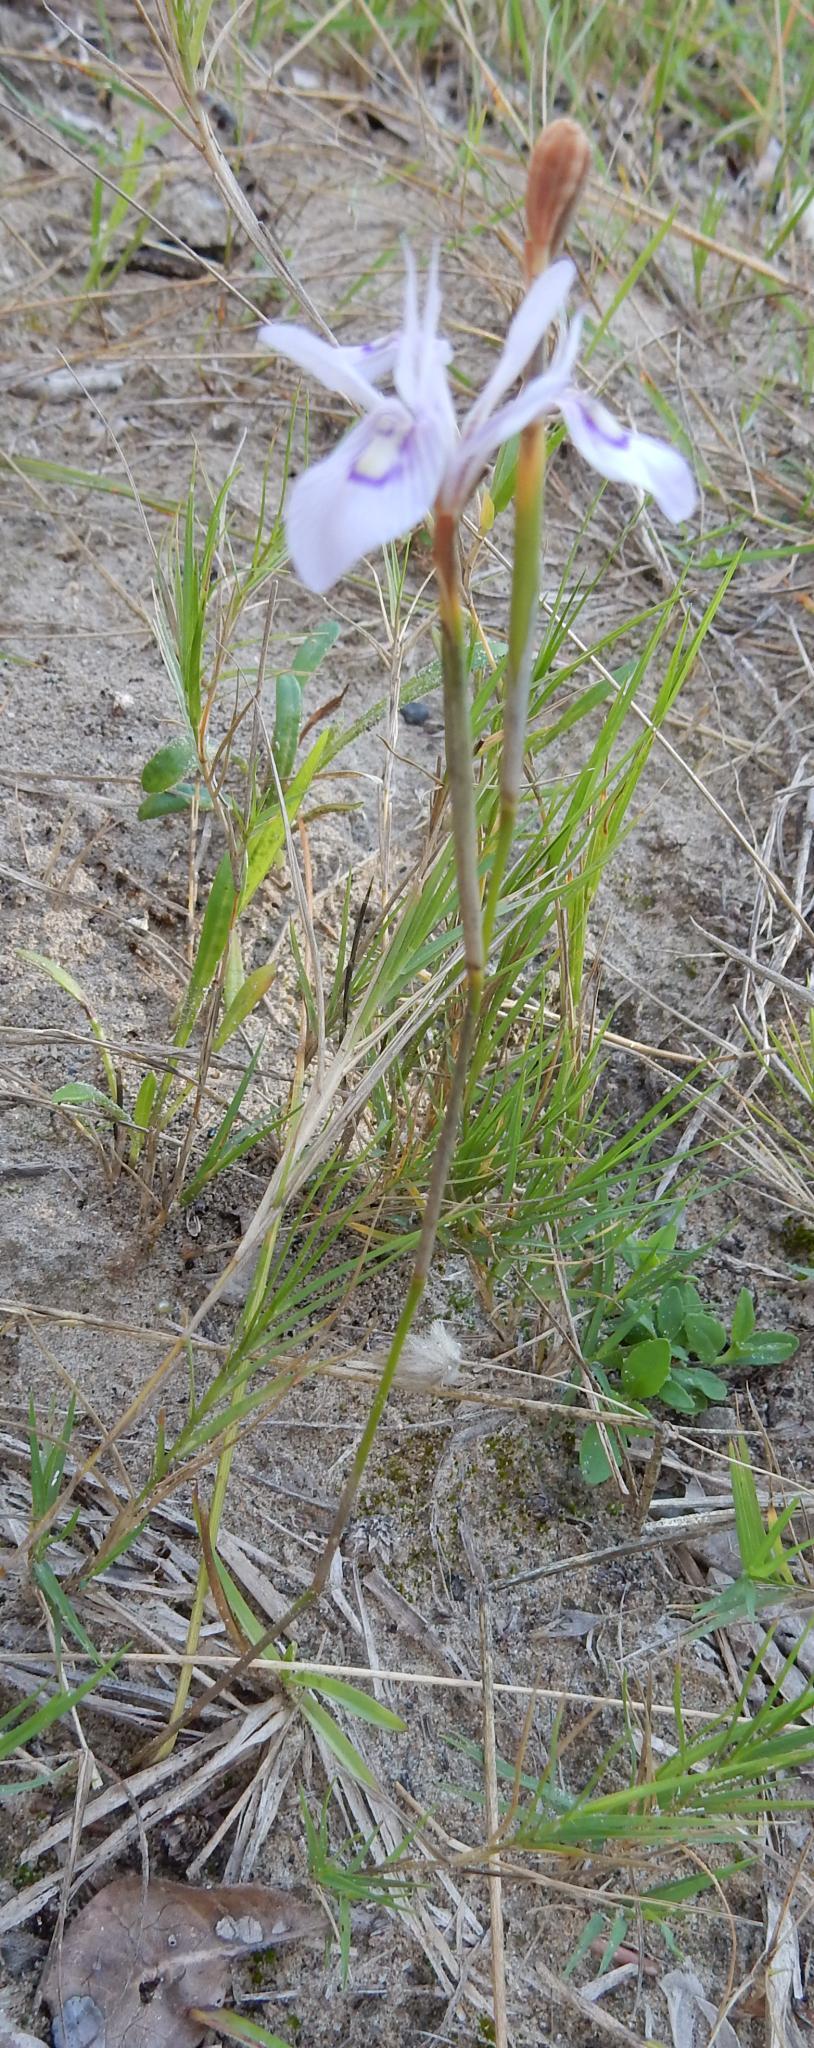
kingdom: Plantae
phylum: Tracheophyta
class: Liliopsida
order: Asparagales
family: Iridaceae
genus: Moraea
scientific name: Moraea elliotii
